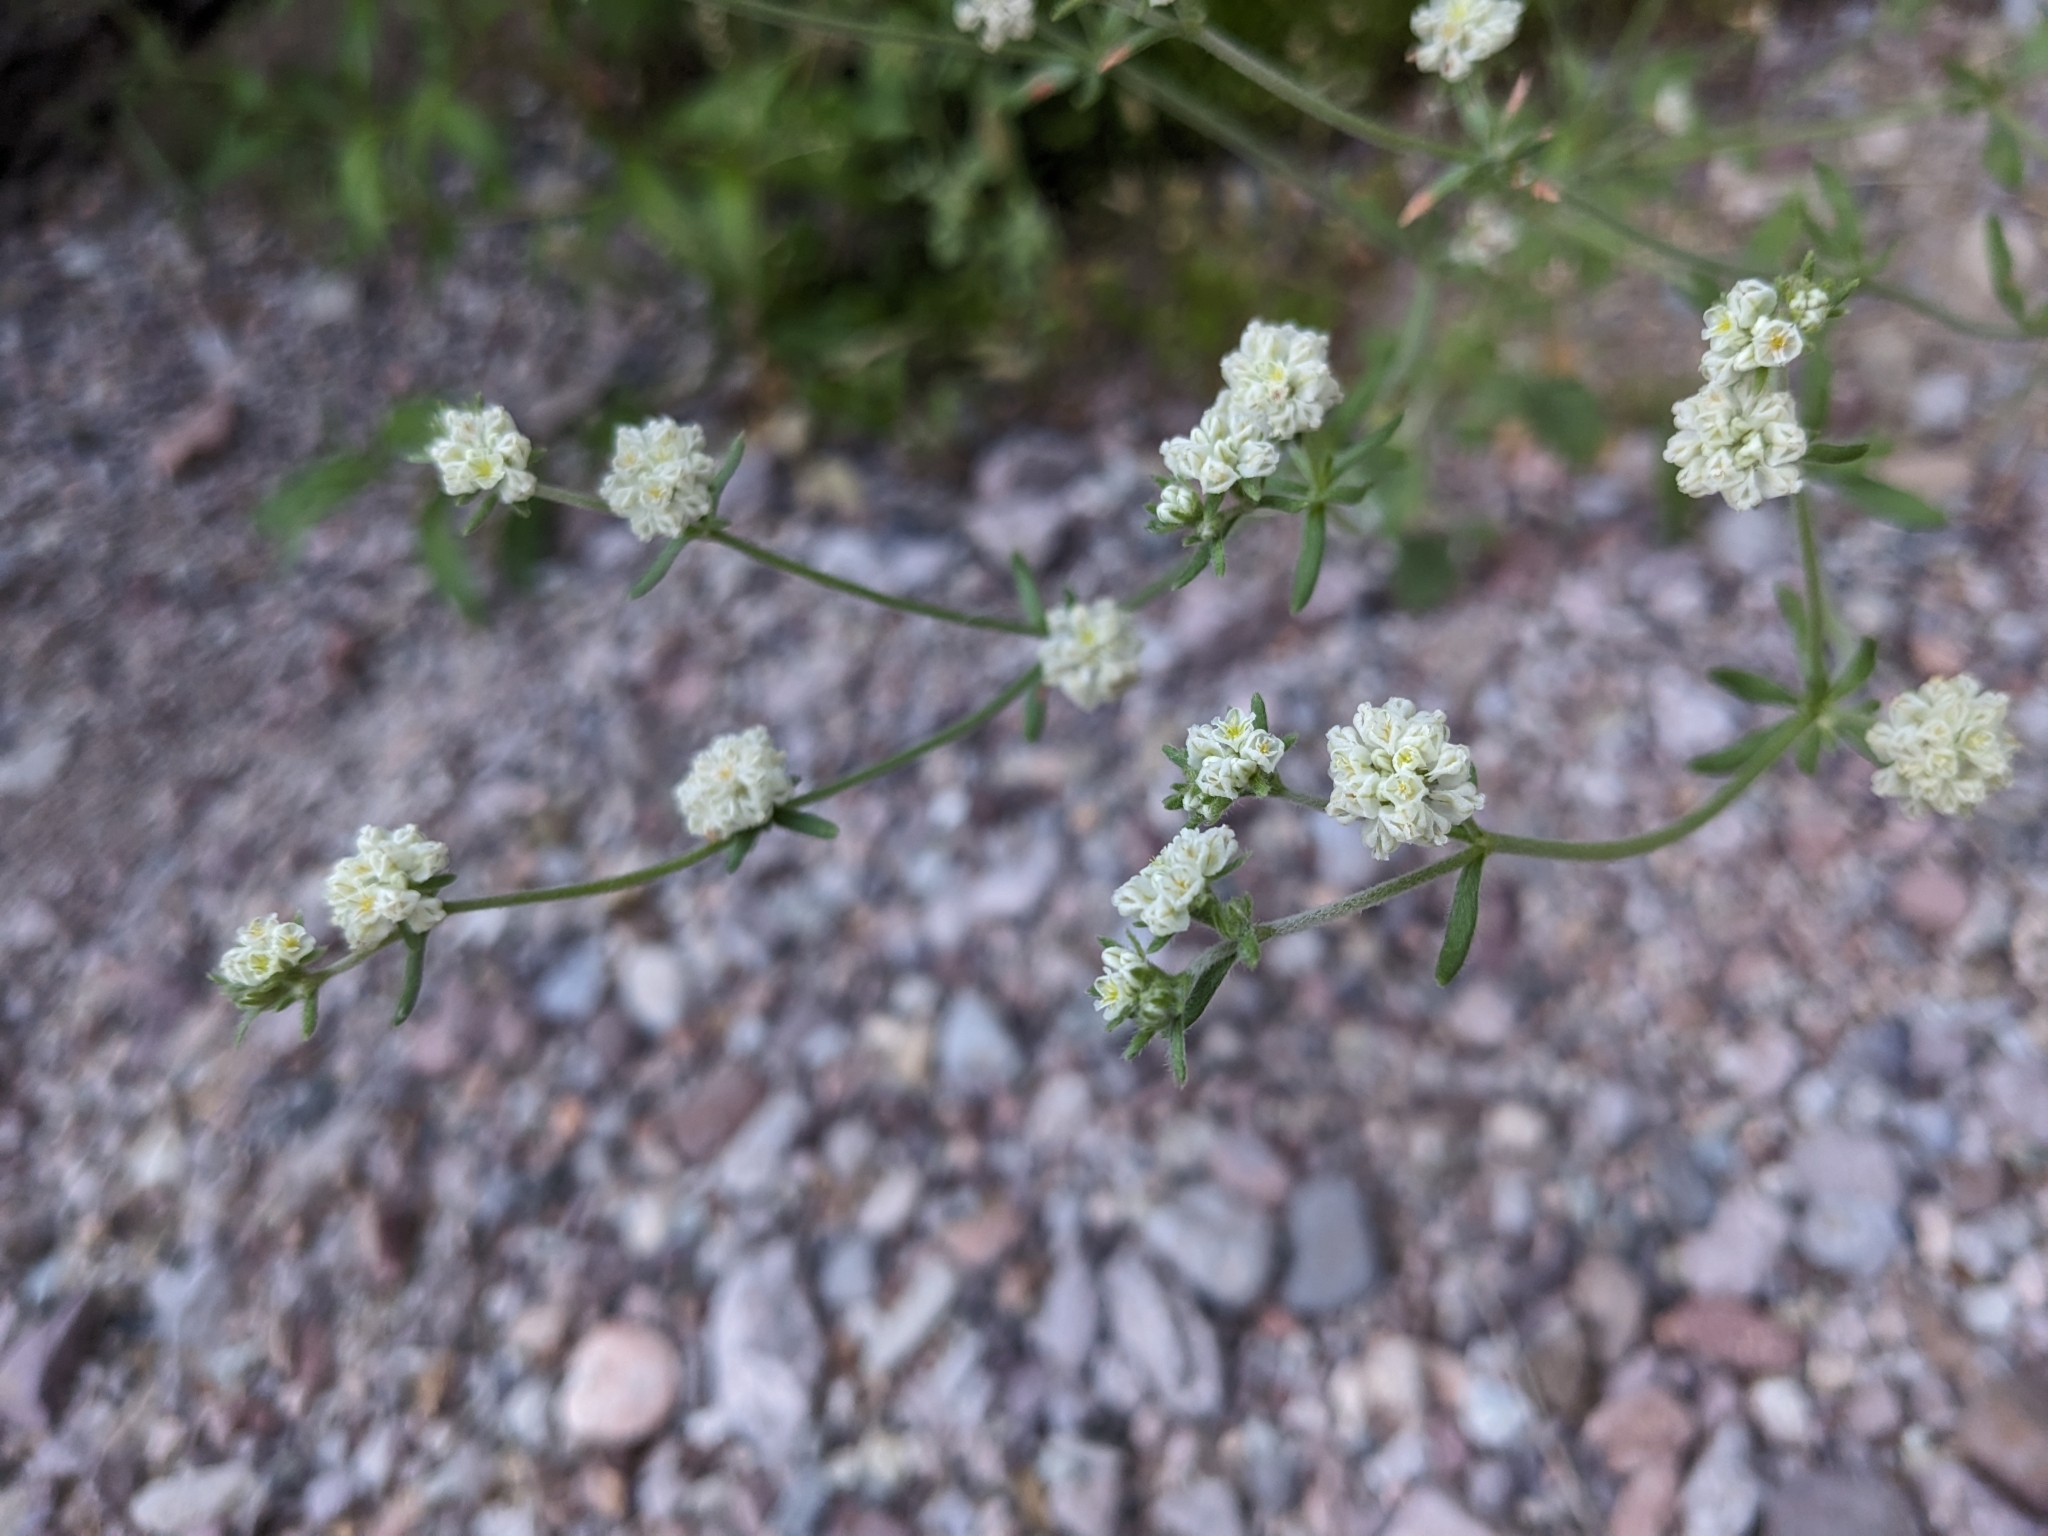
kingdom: Plantae
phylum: Tracheophyta
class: Magnoliopsida
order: Caryophyllales
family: Polygonaceae
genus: Eriogonum
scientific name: Eriogonum abertianum
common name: Abert's wild buckwheat
